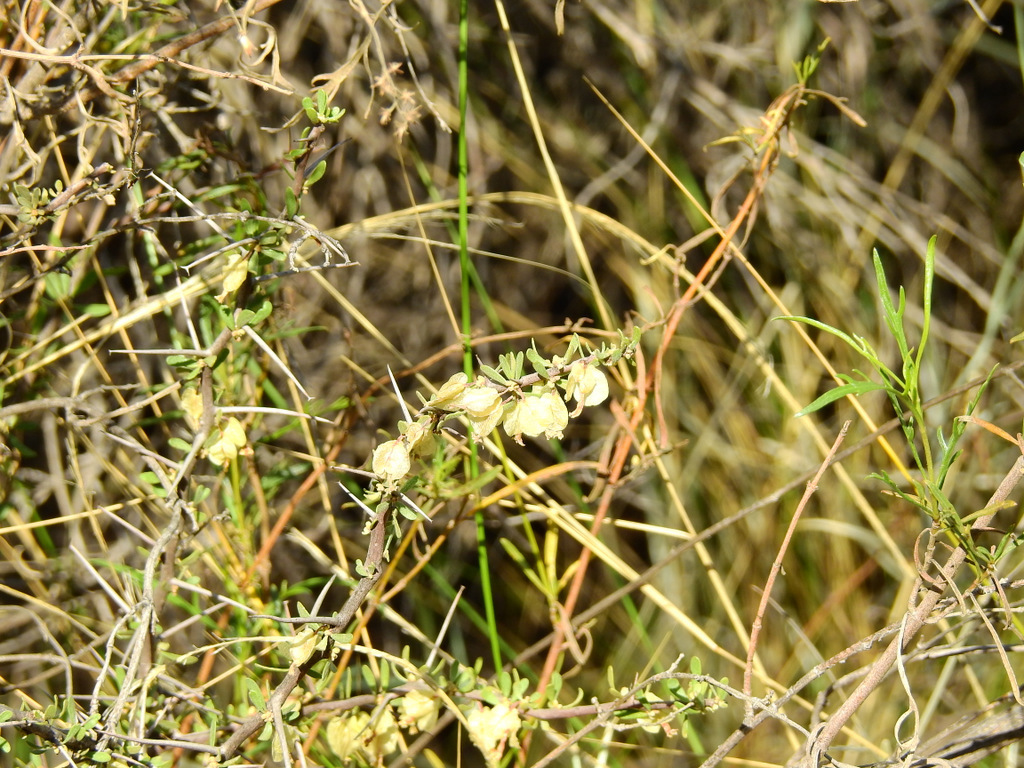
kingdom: Plantae
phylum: Tracheophyta
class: Magnoliopsida
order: Caryophyllales
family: Nyctaginaceae
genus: Bougainvillea
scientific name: Bougainvillea spinosa
